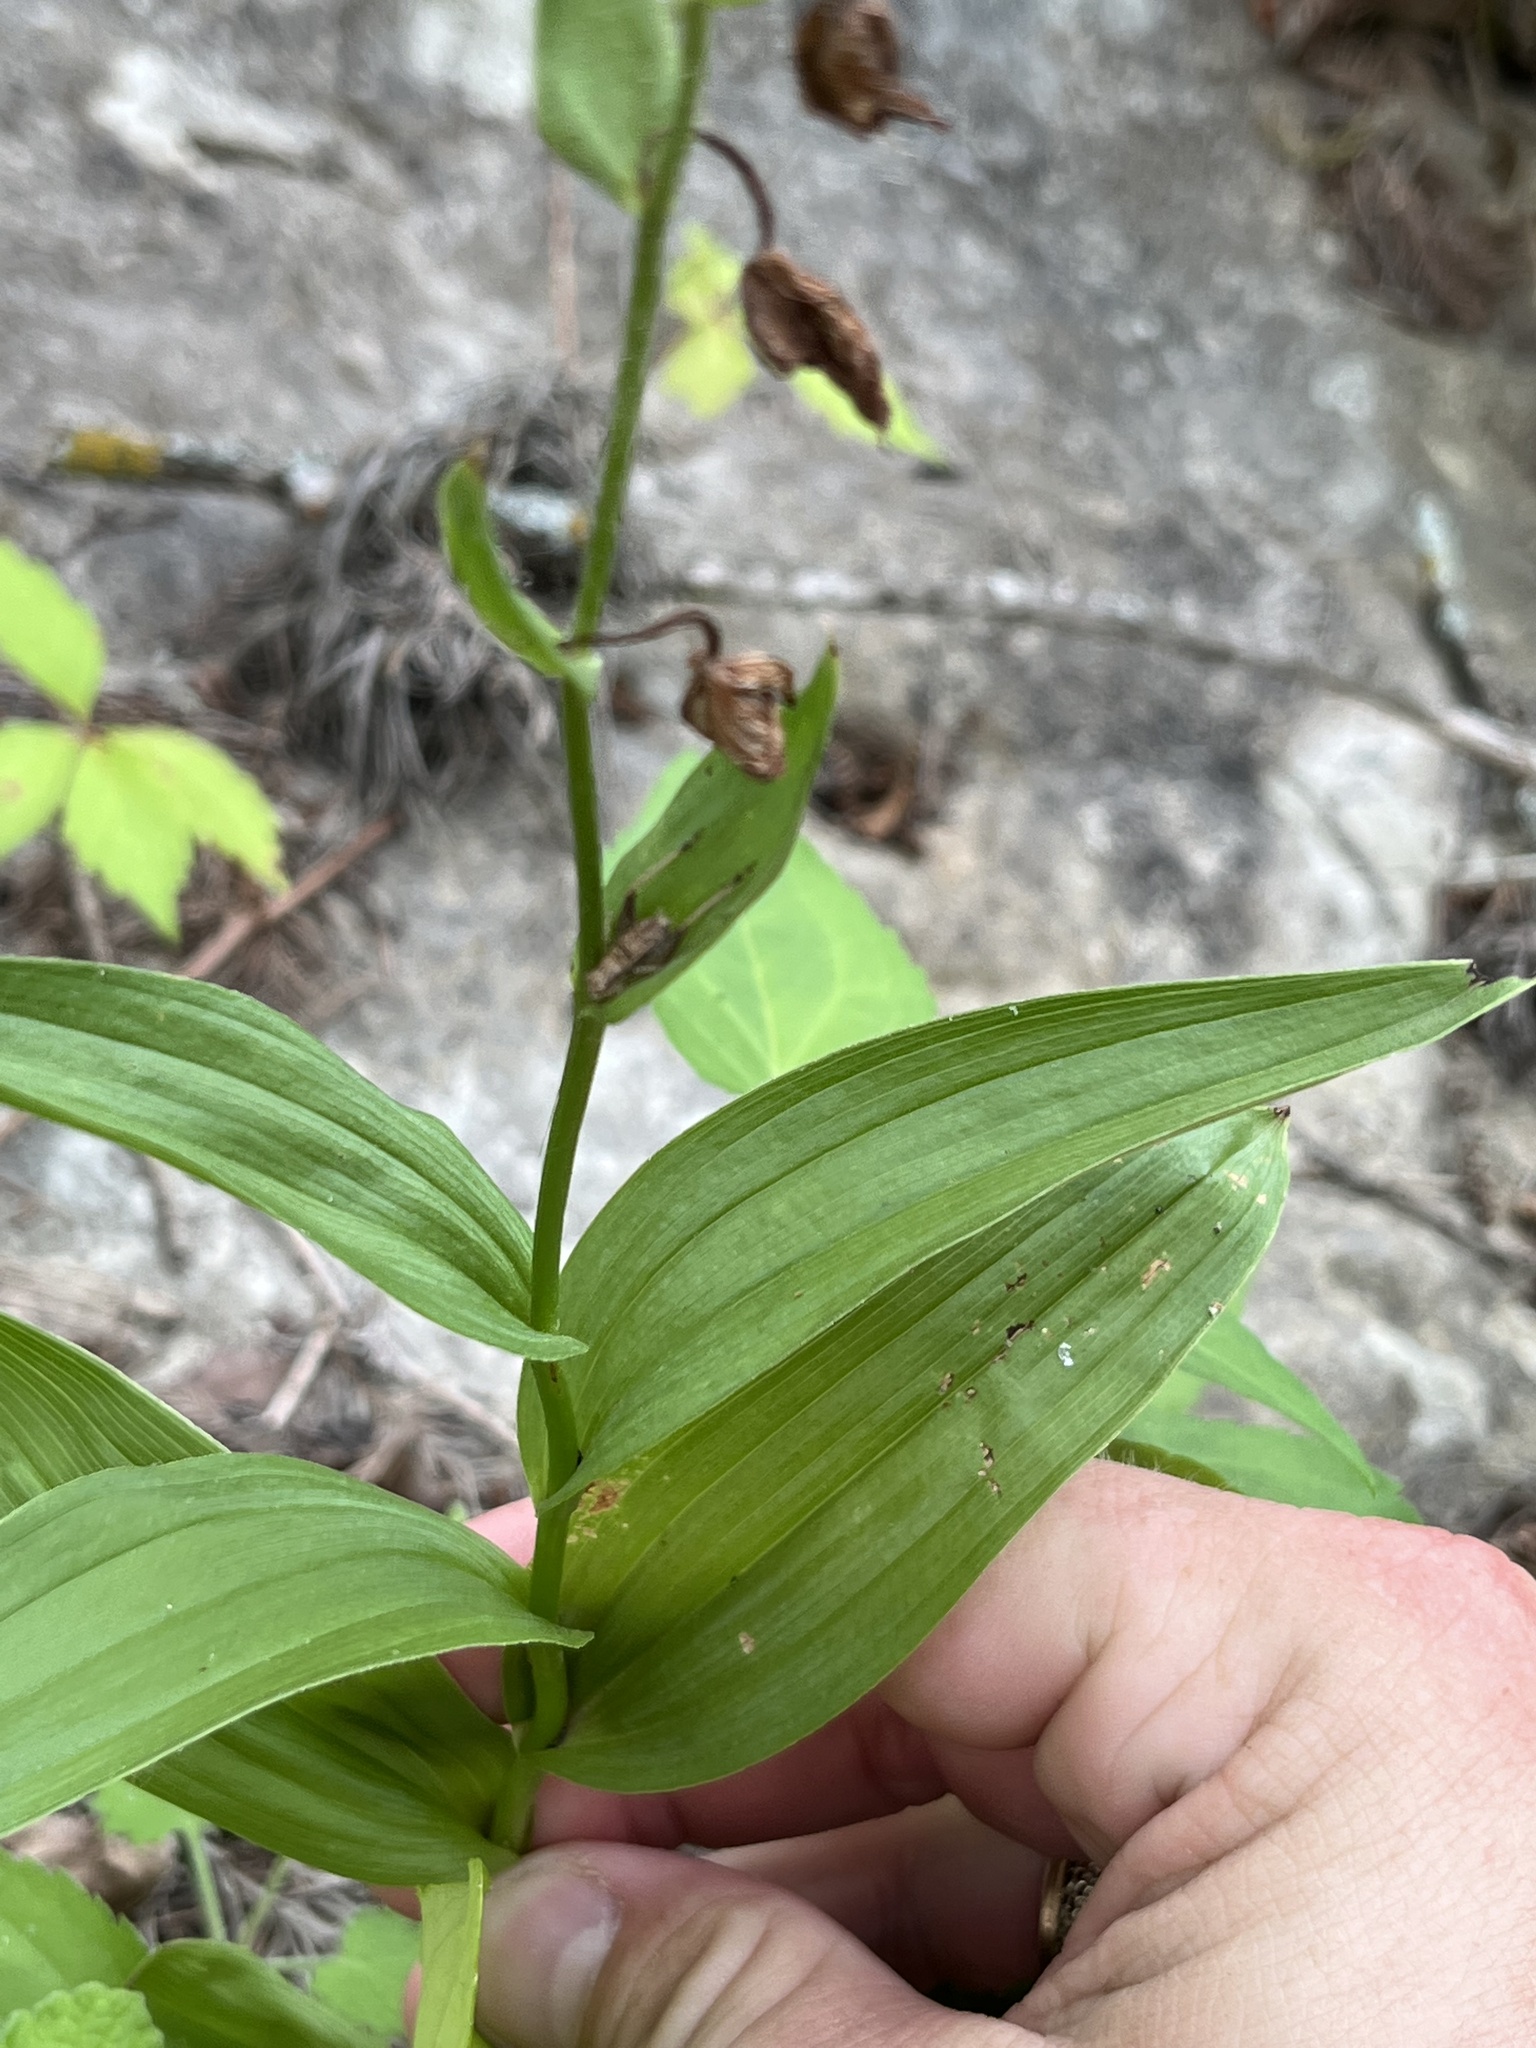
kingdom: Plantae
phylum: Tracheophyta
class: Liliopsida
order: Asparagales
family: Orchidaceae
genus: Epipactis
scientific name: Epipactis gigantea
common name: Chatterbox
